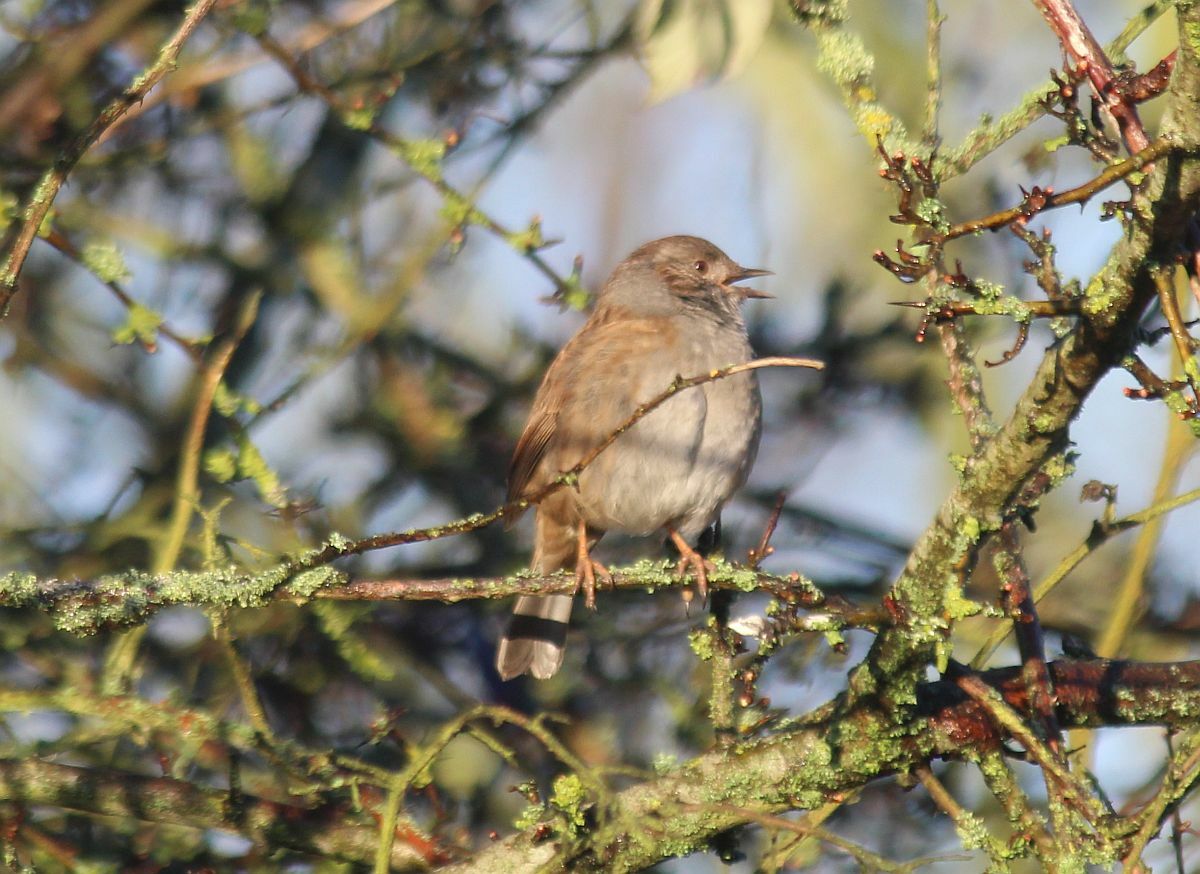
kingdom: Animalia
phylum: Chordata
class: Aves
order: Passeriformes
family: Prunellidae
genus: Prunella
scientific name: Prunella modularis
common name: Dunnock
